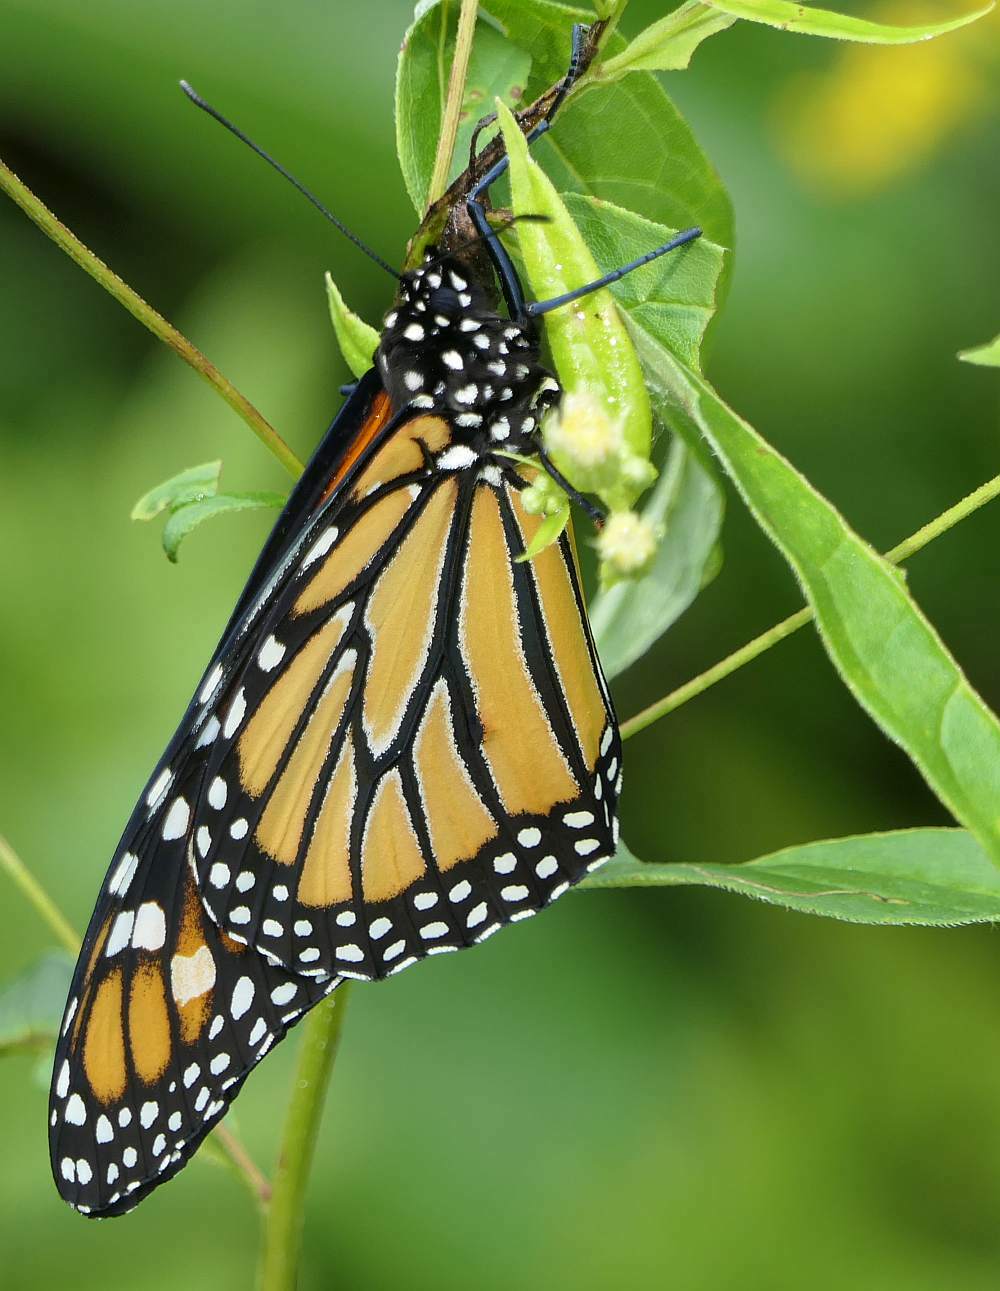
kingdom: Animalia
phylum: Arthropoda
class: Insecta
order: Lepidoptera
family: Nymphalidae
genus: Danaus
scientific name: Danaus plexippus
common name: Monarch
